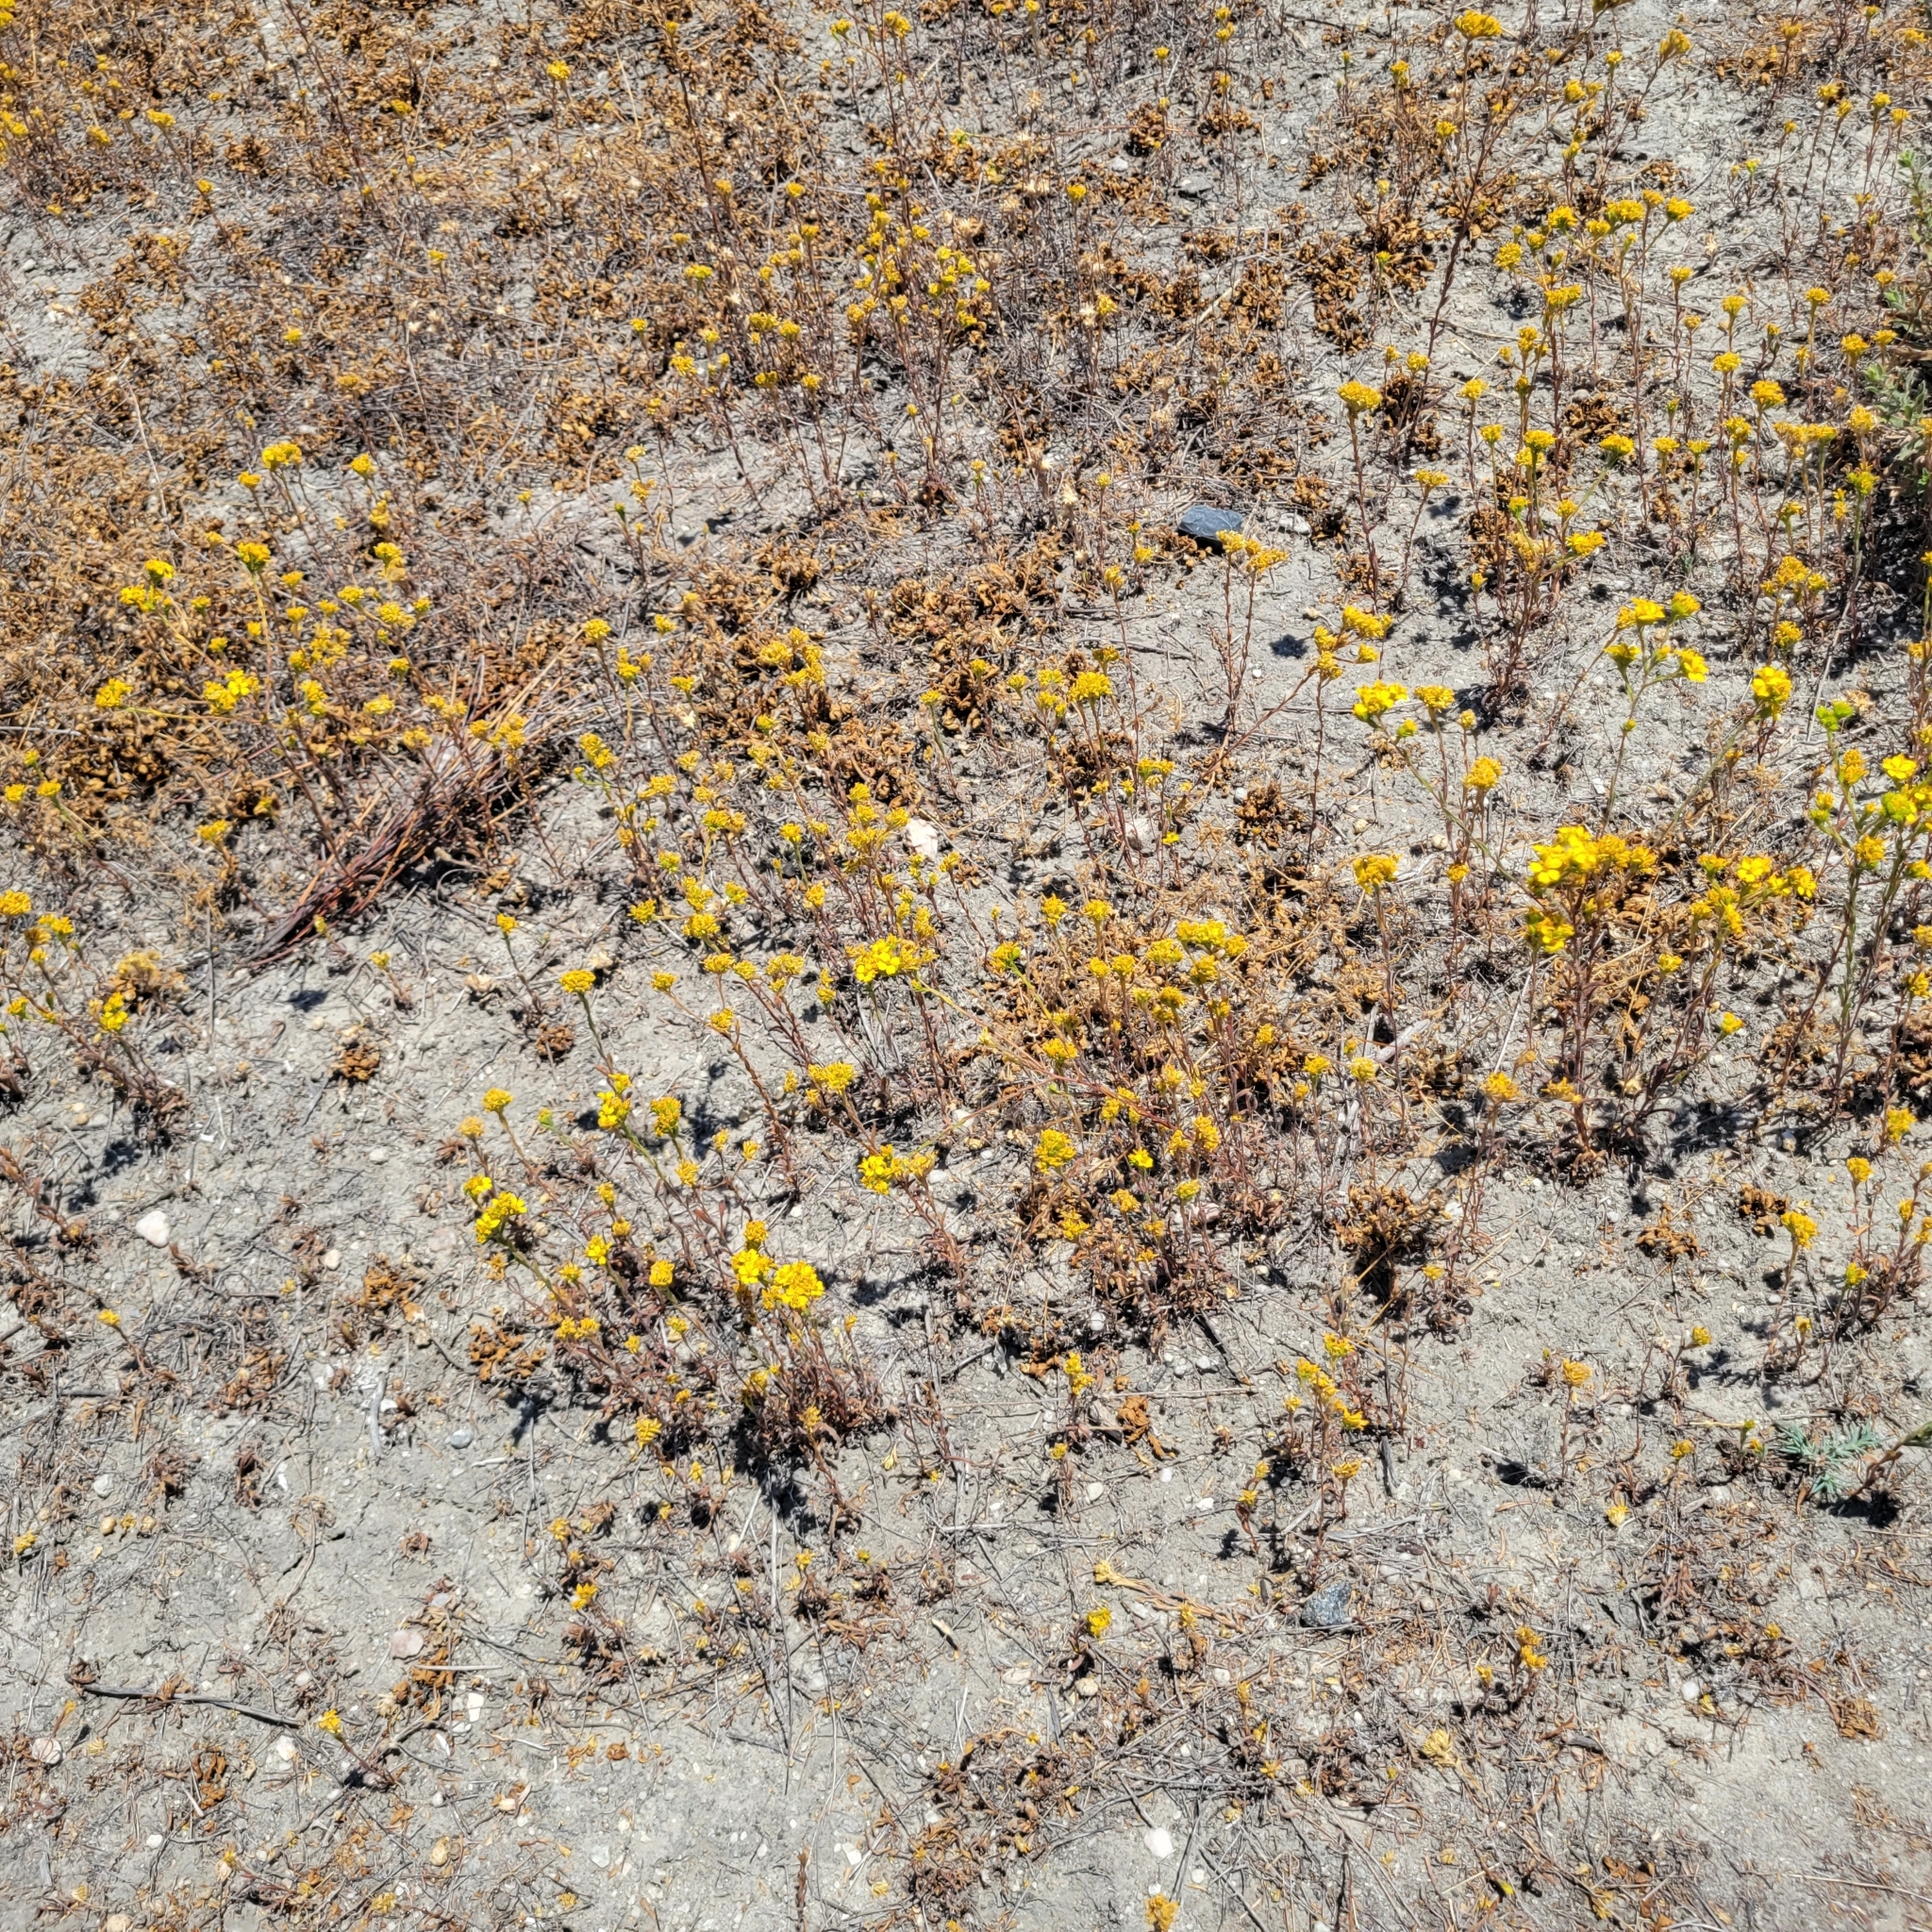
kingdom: Plantae
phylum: Tracheophyta
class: Magnoliopsida
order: Asterales
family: Asteraceae
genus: Deinandra
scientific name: Deinandra fasciculata
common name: Clustered tarweed
